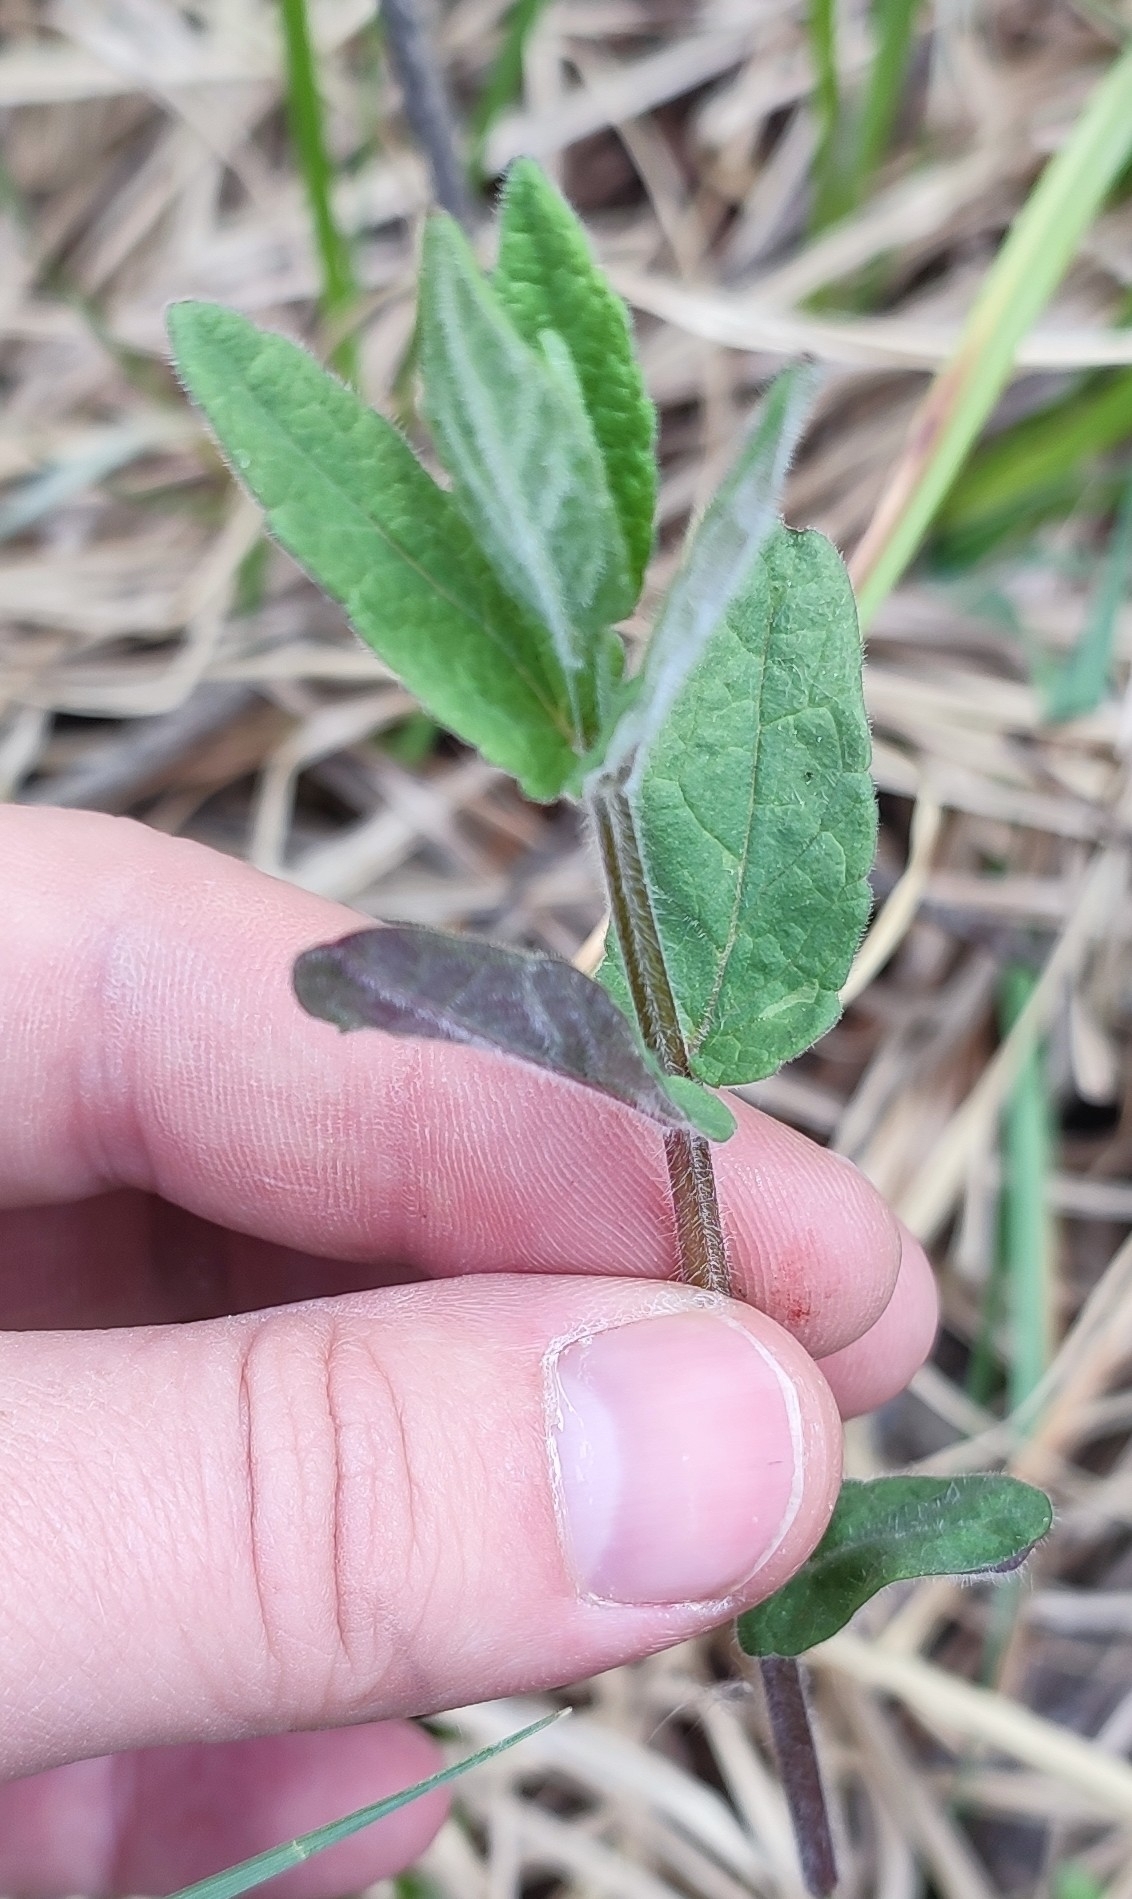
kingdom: Plantae
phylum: Tracheophyta
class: Magnoliopsida
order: Lamiales
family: Lamiaceae
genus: Scutellaria
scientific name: Scutellaria galericulata
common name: Skullcap
